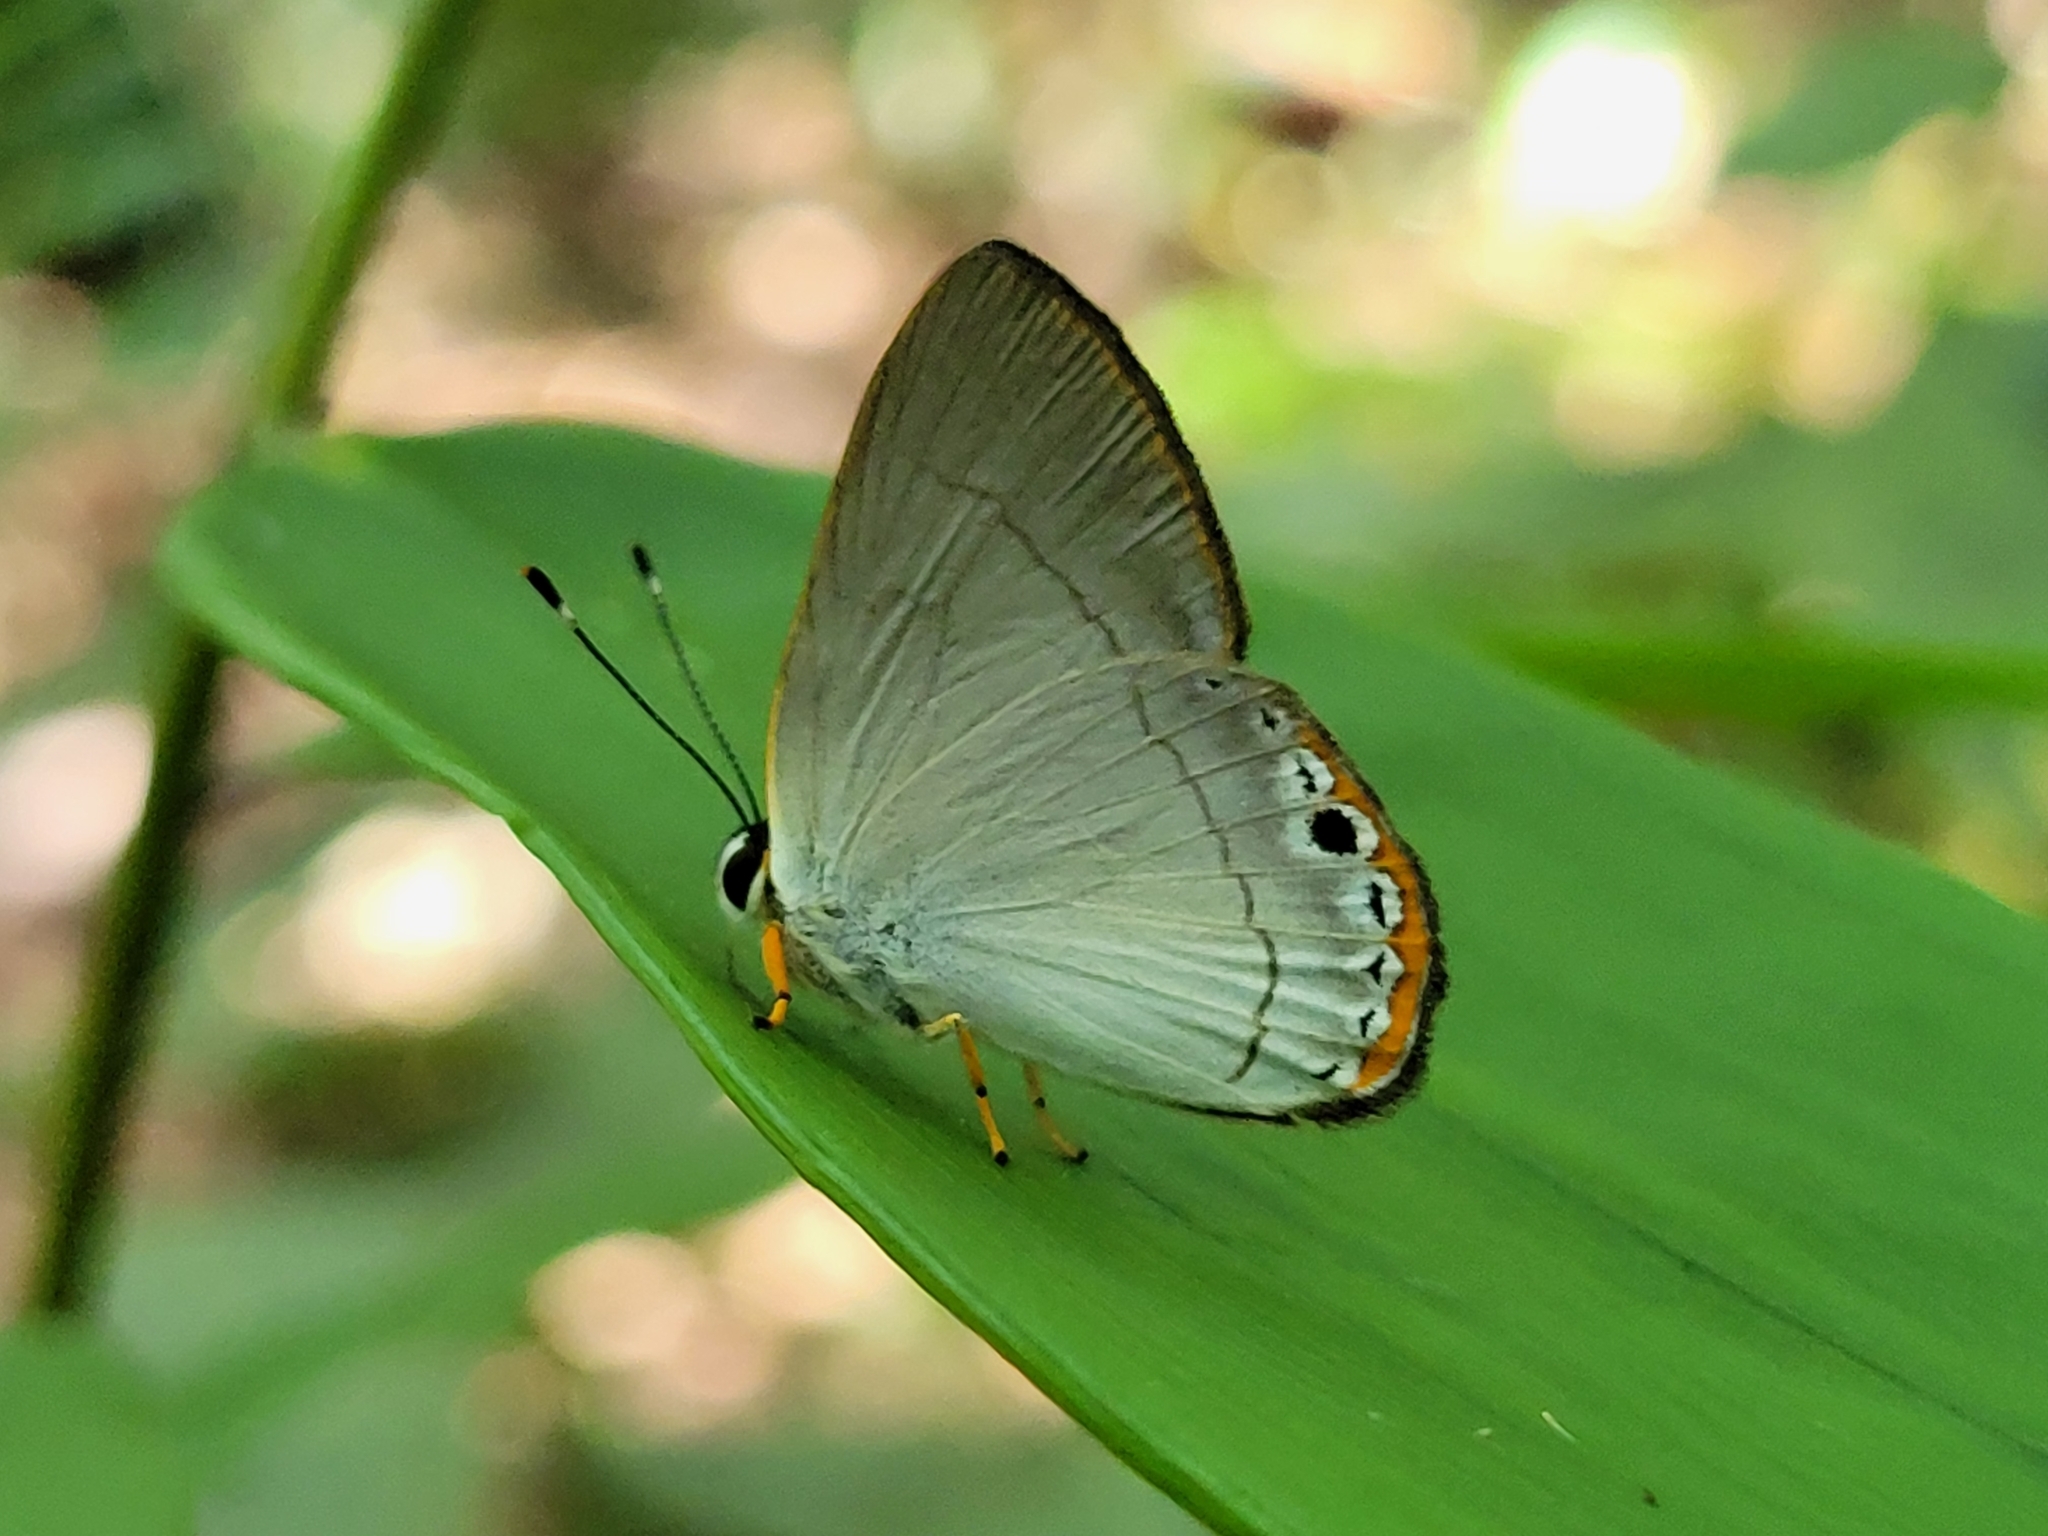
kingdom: Animalia
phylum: Arthropoda
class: Insecta
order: Lepidoptera
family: Lycaenidae
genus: Euselasia
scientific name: Euselasia baucis
